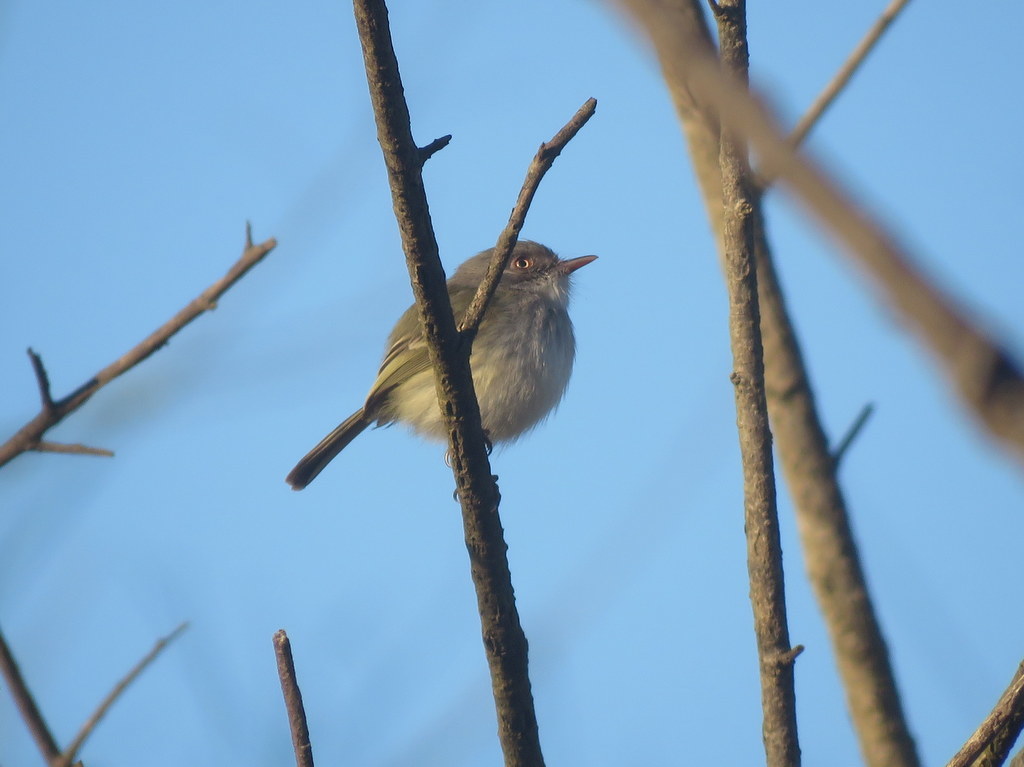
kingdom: Animalia
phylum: Chordata
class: Aves
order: Passeriformes
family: Tyrannidae
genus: Hemitriccus
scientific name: Hemitriccus margaritaceiventer
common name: Pearly-vented tody-tyrant
